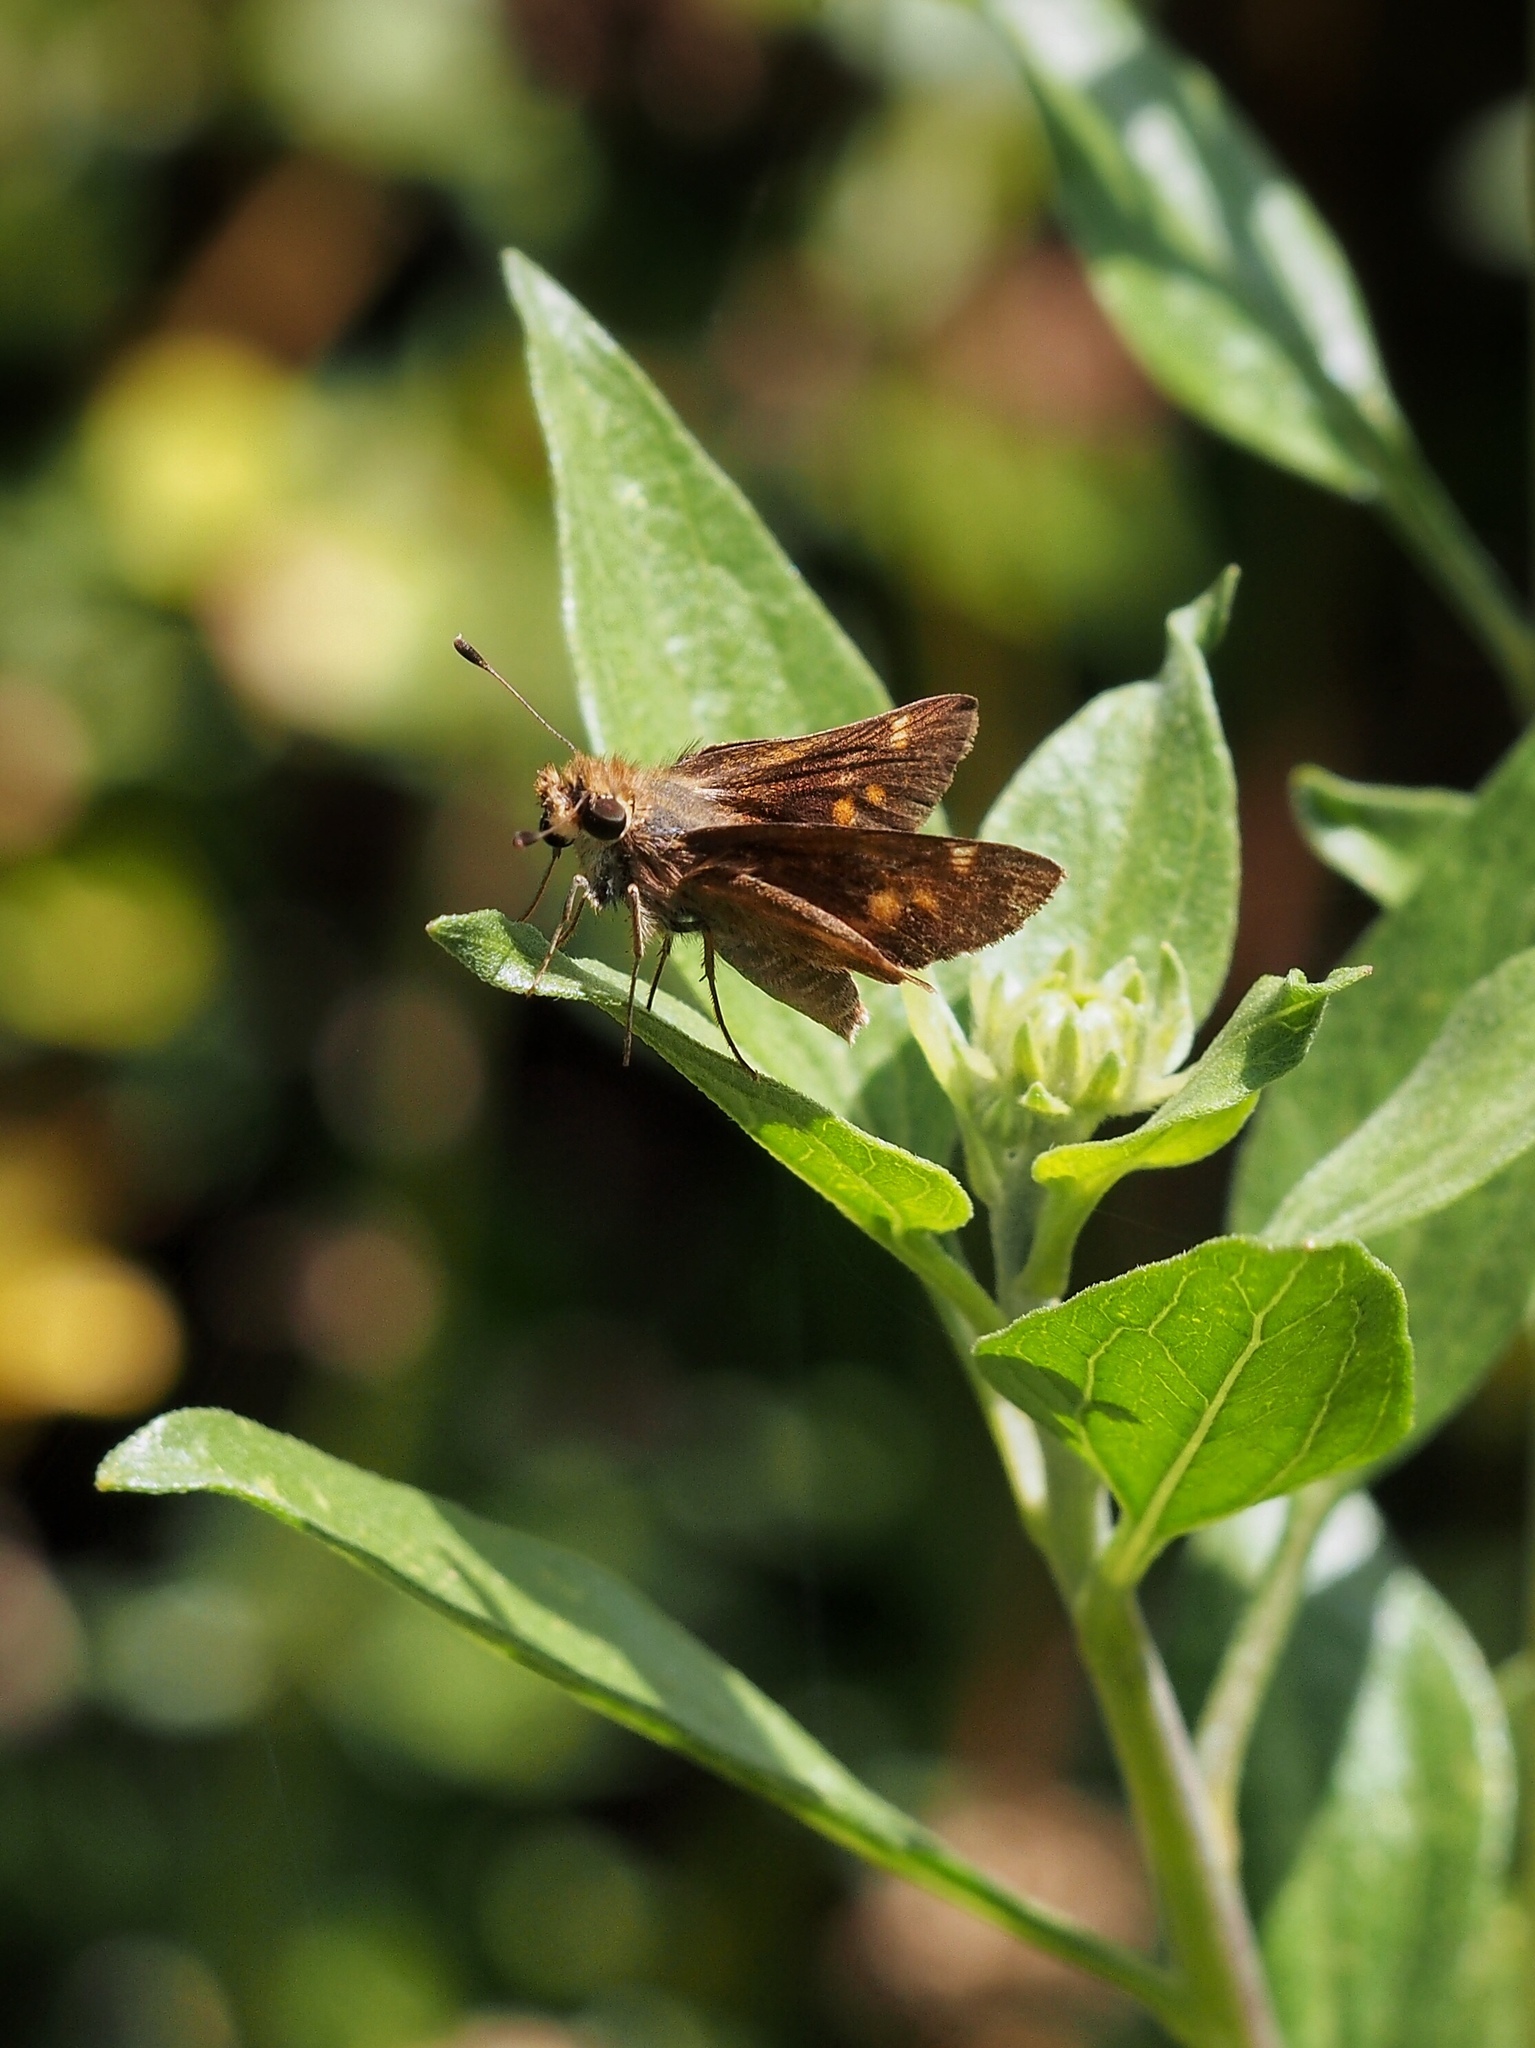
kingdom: Animalia
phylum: Arthropoda
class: Insecta
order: Lepidoptera
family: Hesperiidae
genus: Lon
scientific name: Lon melane
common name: Umber skipper
